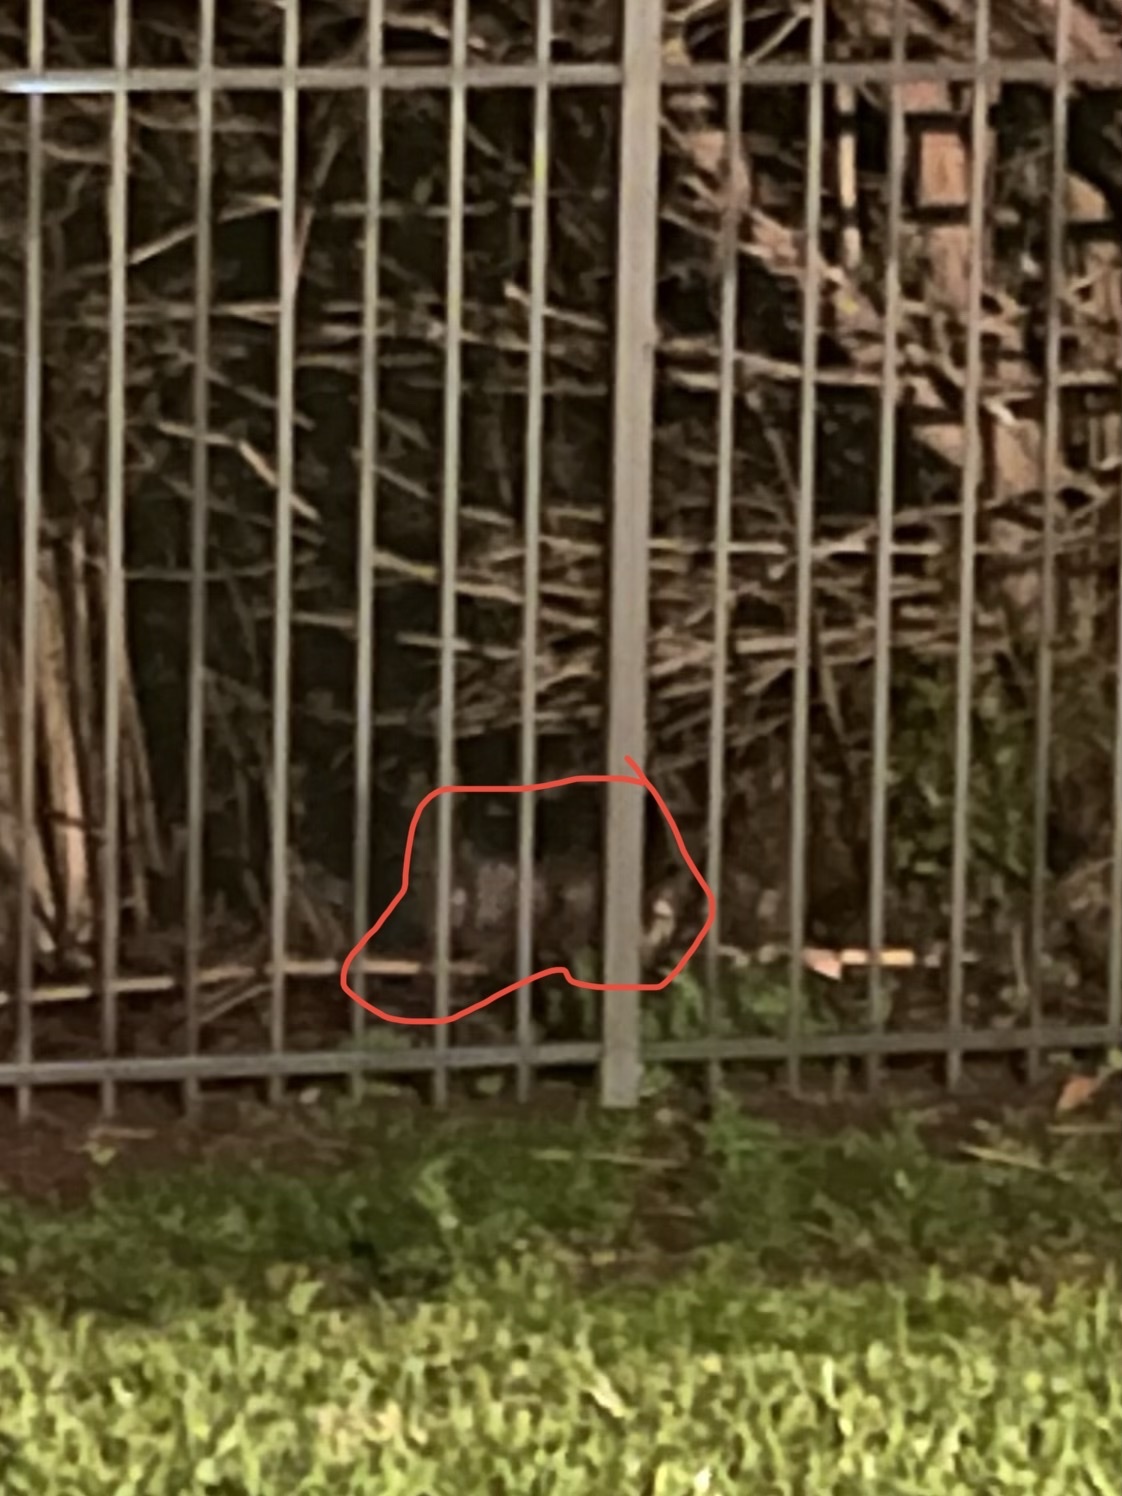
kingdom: Animalia
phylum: Chordata
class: Mammalia
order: Didelphimorphia
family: Didelphidae
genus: Didelphis
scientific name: Didelphis virginiana
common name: Virginia opossum
